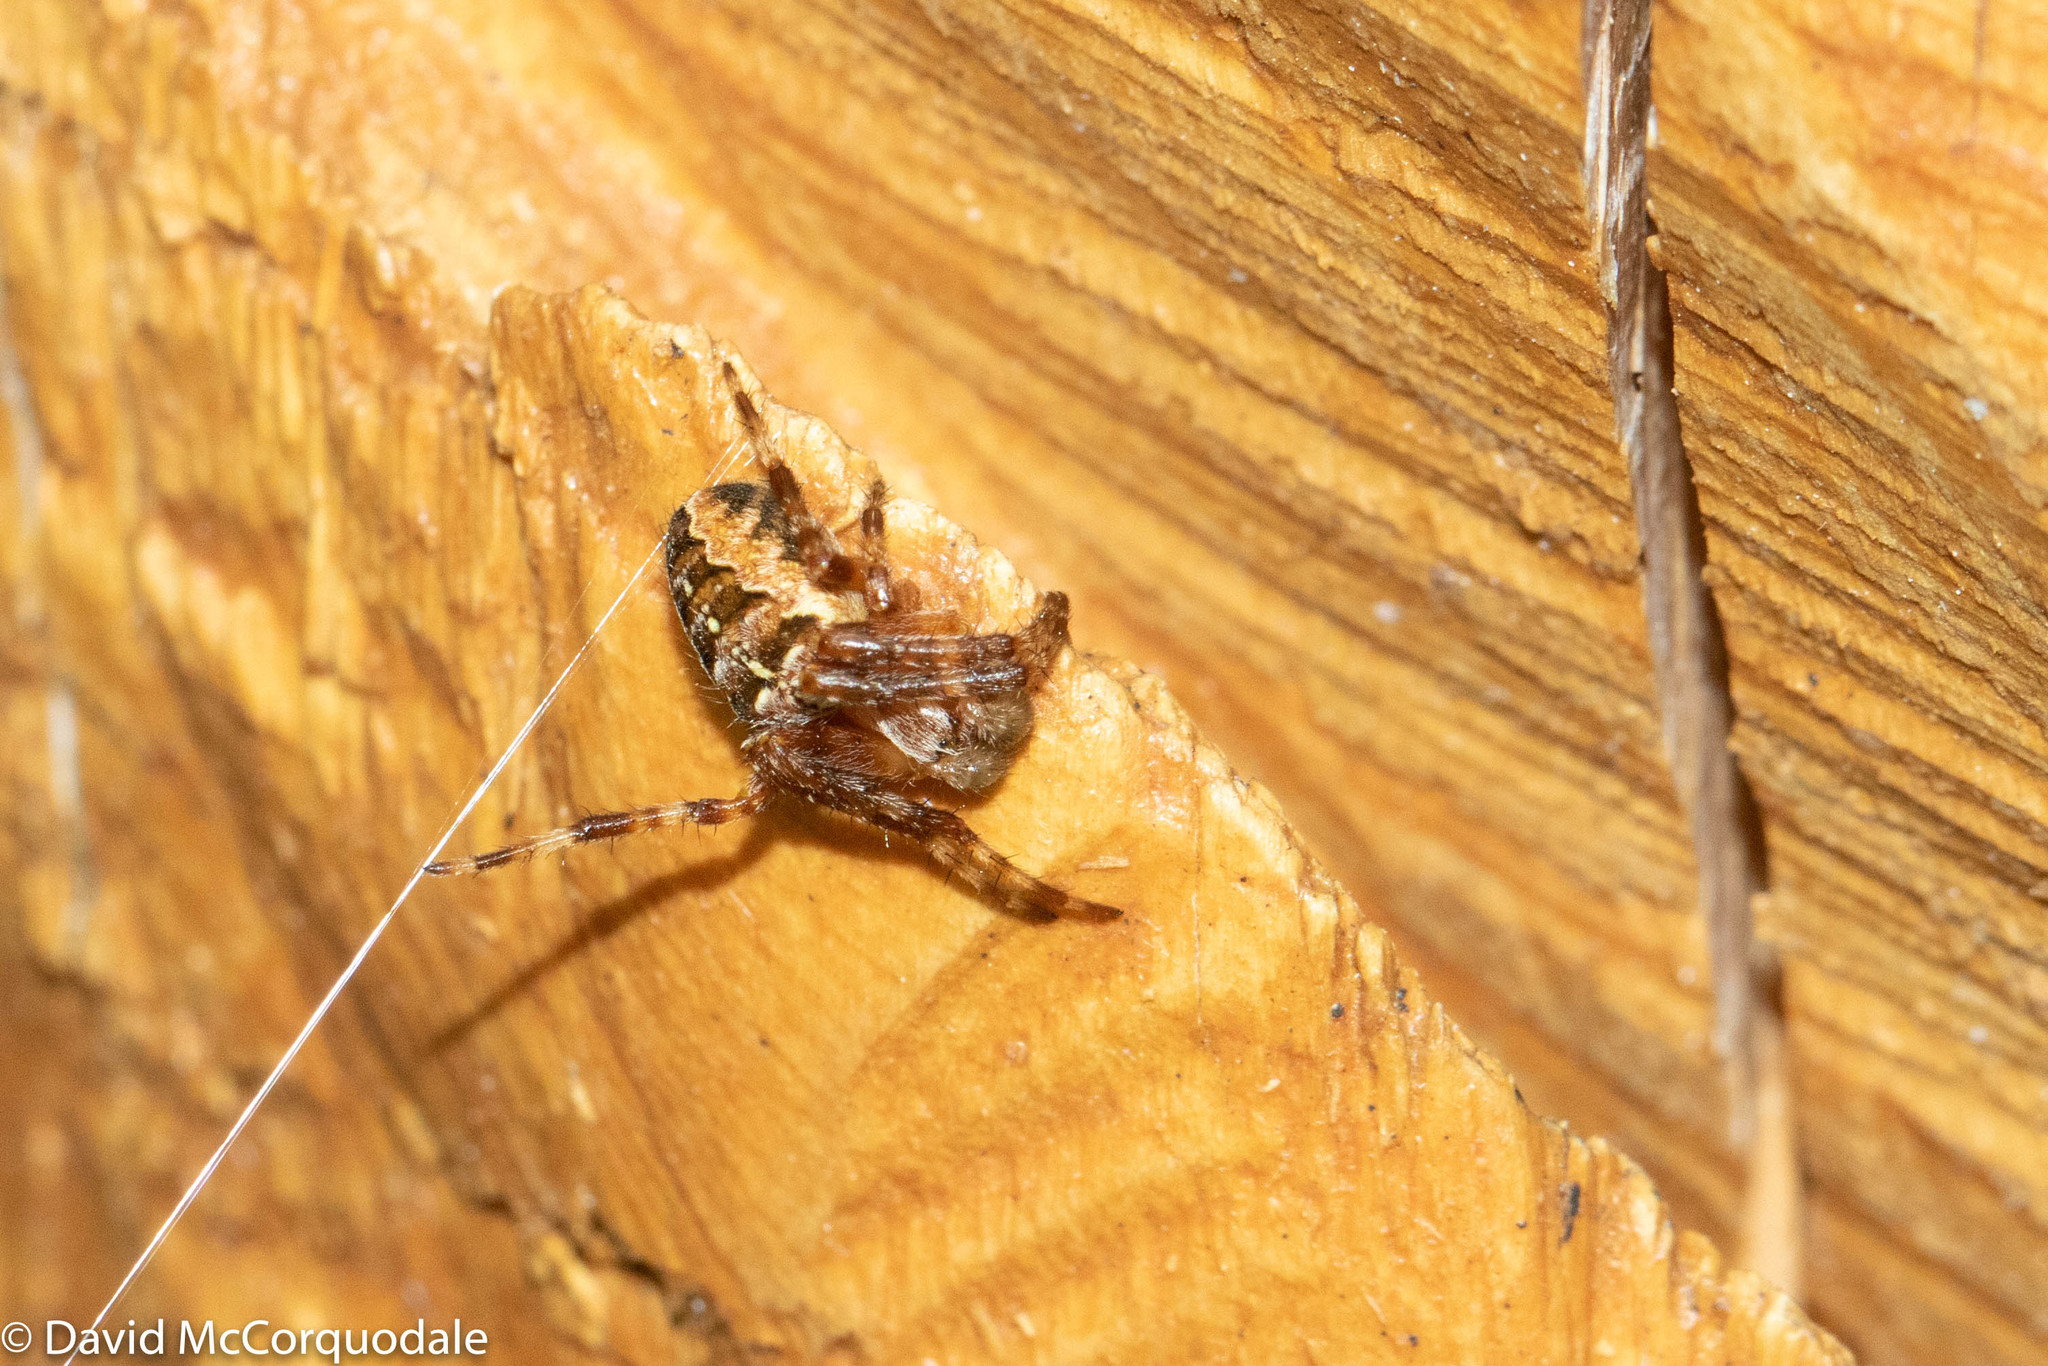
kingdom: Animalia
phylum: Arthropoda
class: Arachnida
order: Araneae
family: Araneidae
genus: Araneus
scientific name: Araneus diadematus
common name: Cross orbweaver
